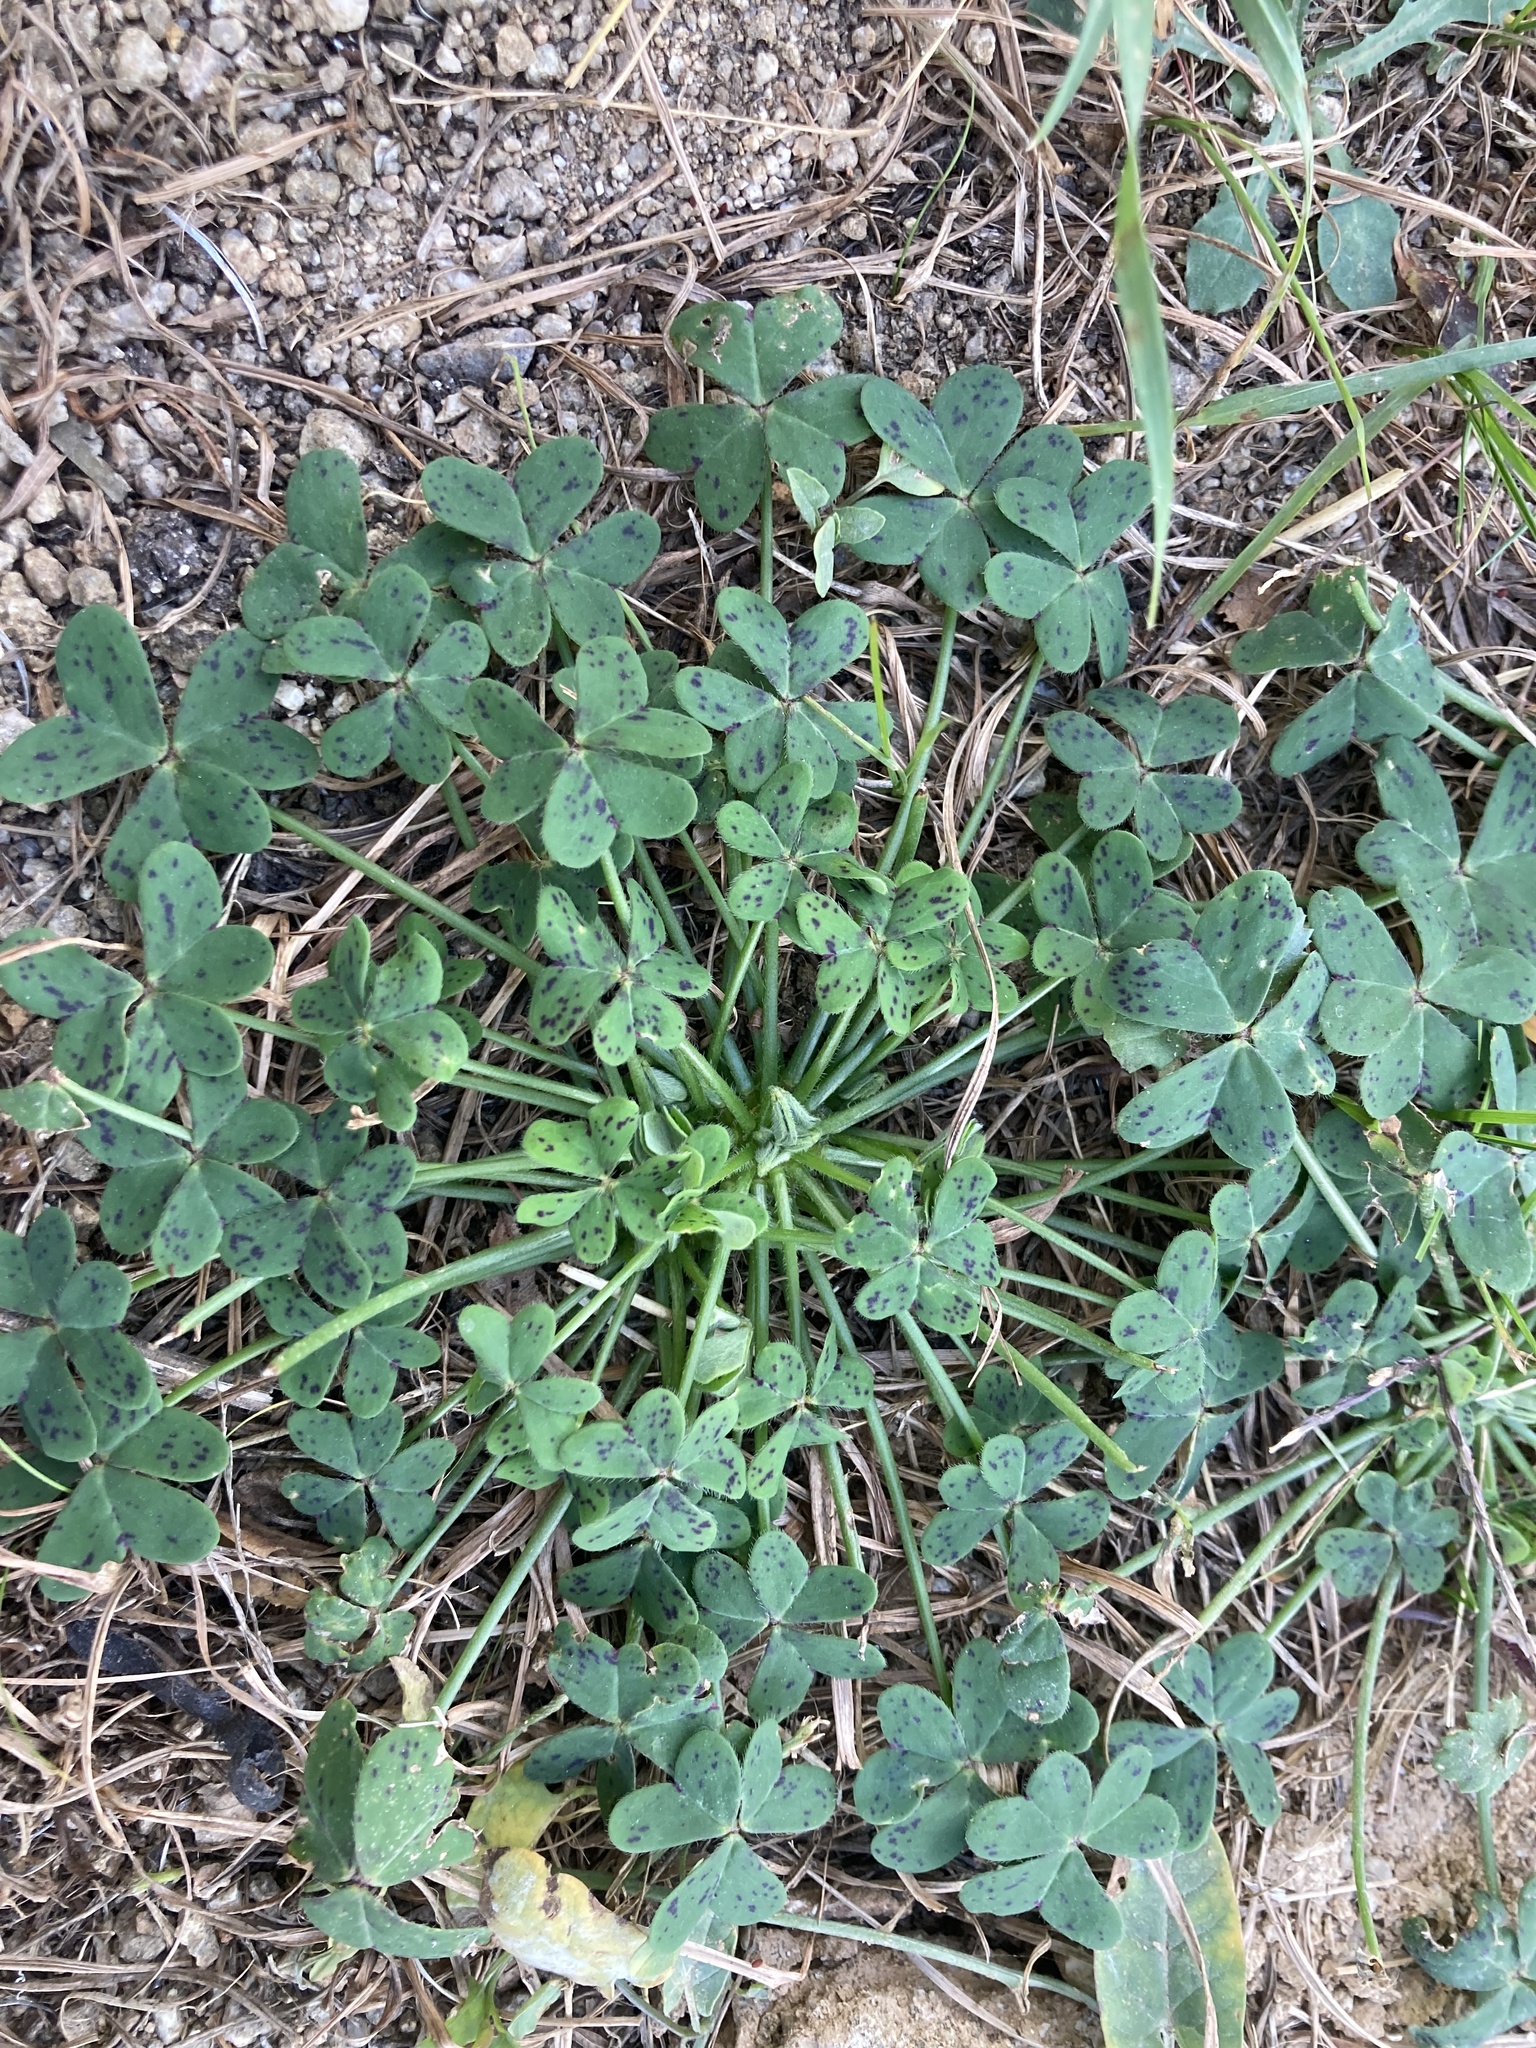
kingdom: Plantae
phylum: Tracheophyta
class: Magnoliopsida
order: Oxalidales
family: Oxalidaceae
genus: Oxalis
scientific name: Oxalis pes-caprae
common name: Bermuda-buttercup
